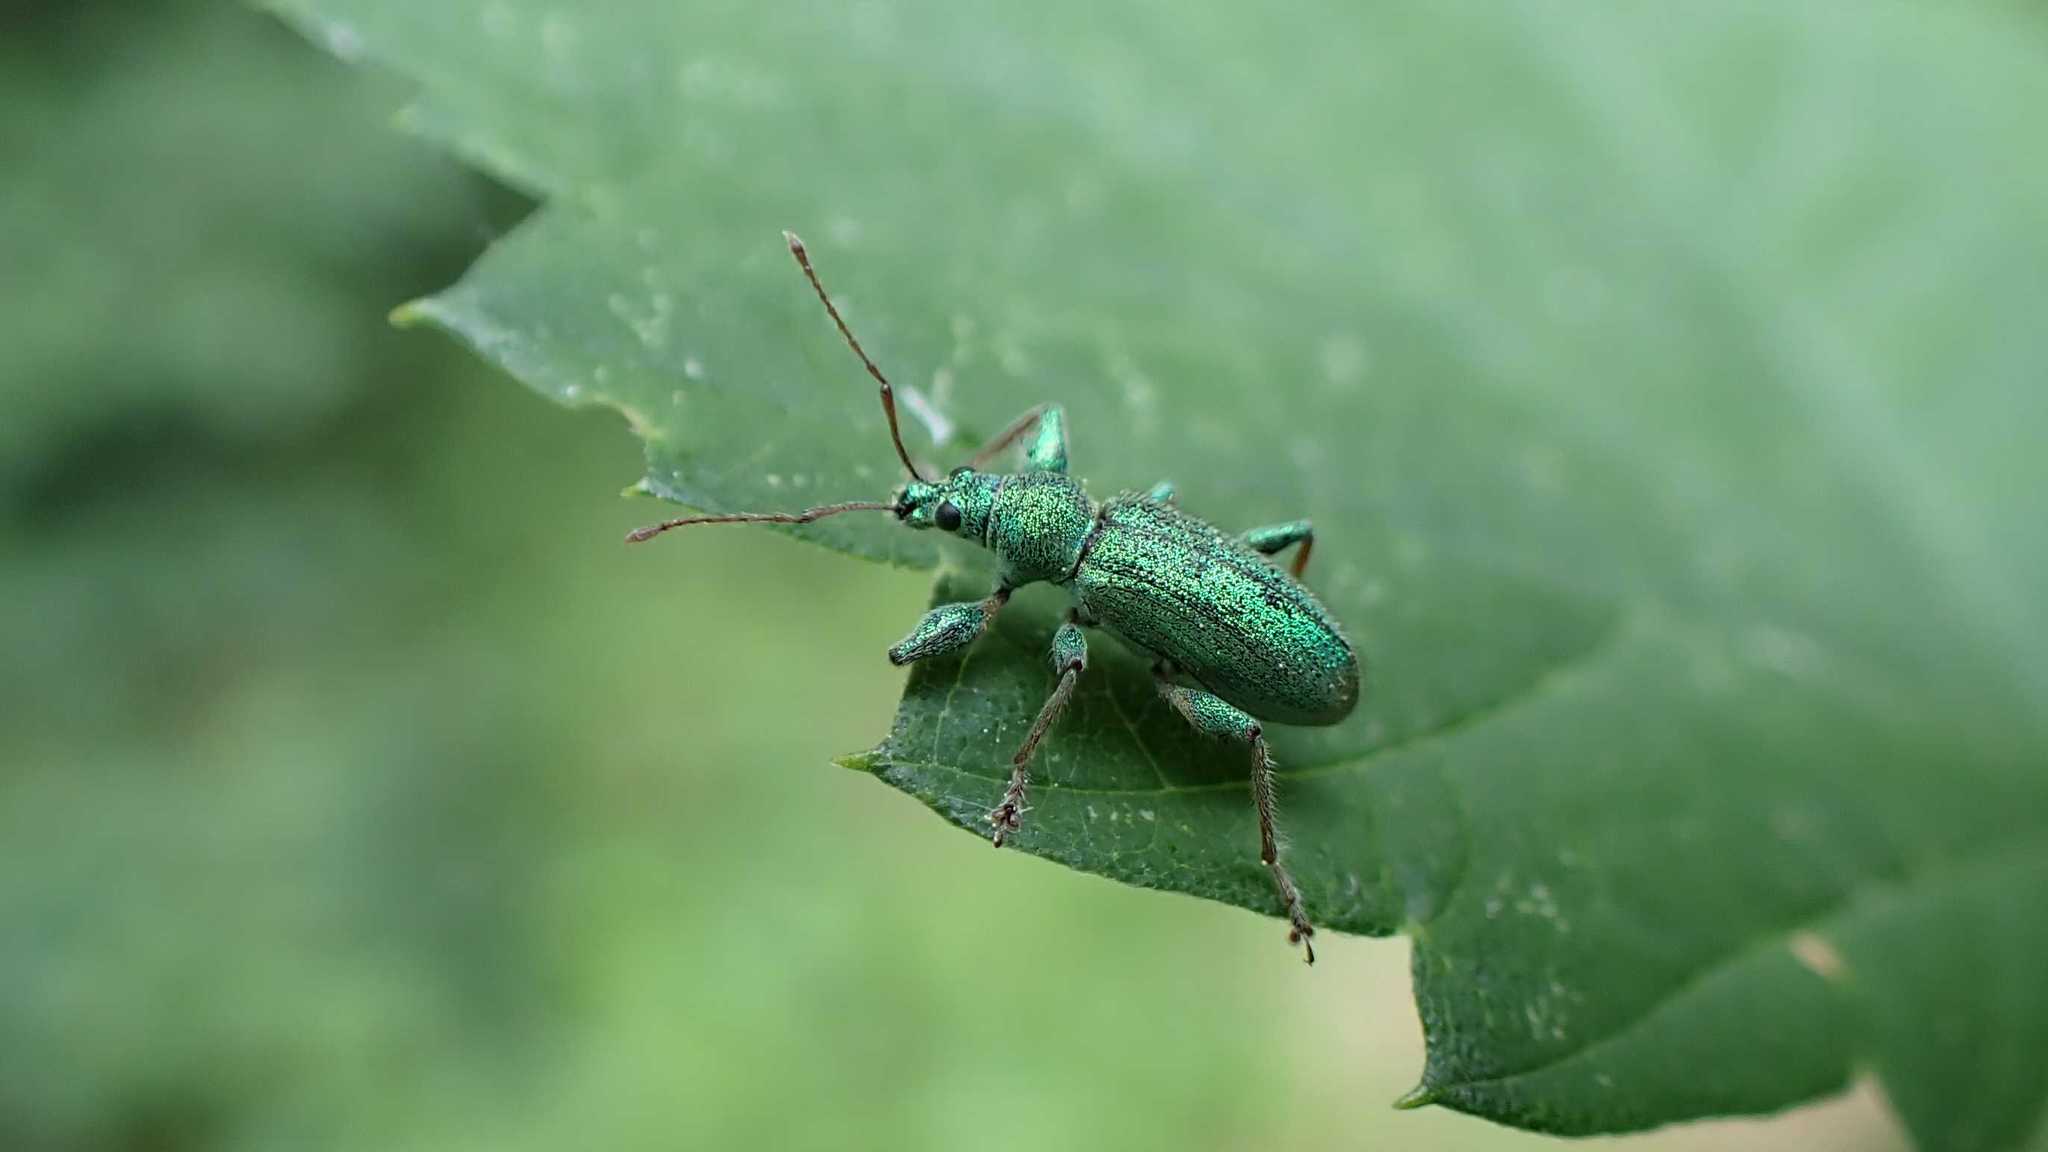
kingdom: Animalia
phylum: Arthropoda
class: Insecta
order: Coleoptera
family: Curculionidae
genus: Phyllobius
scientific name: Phyllobius arborator
